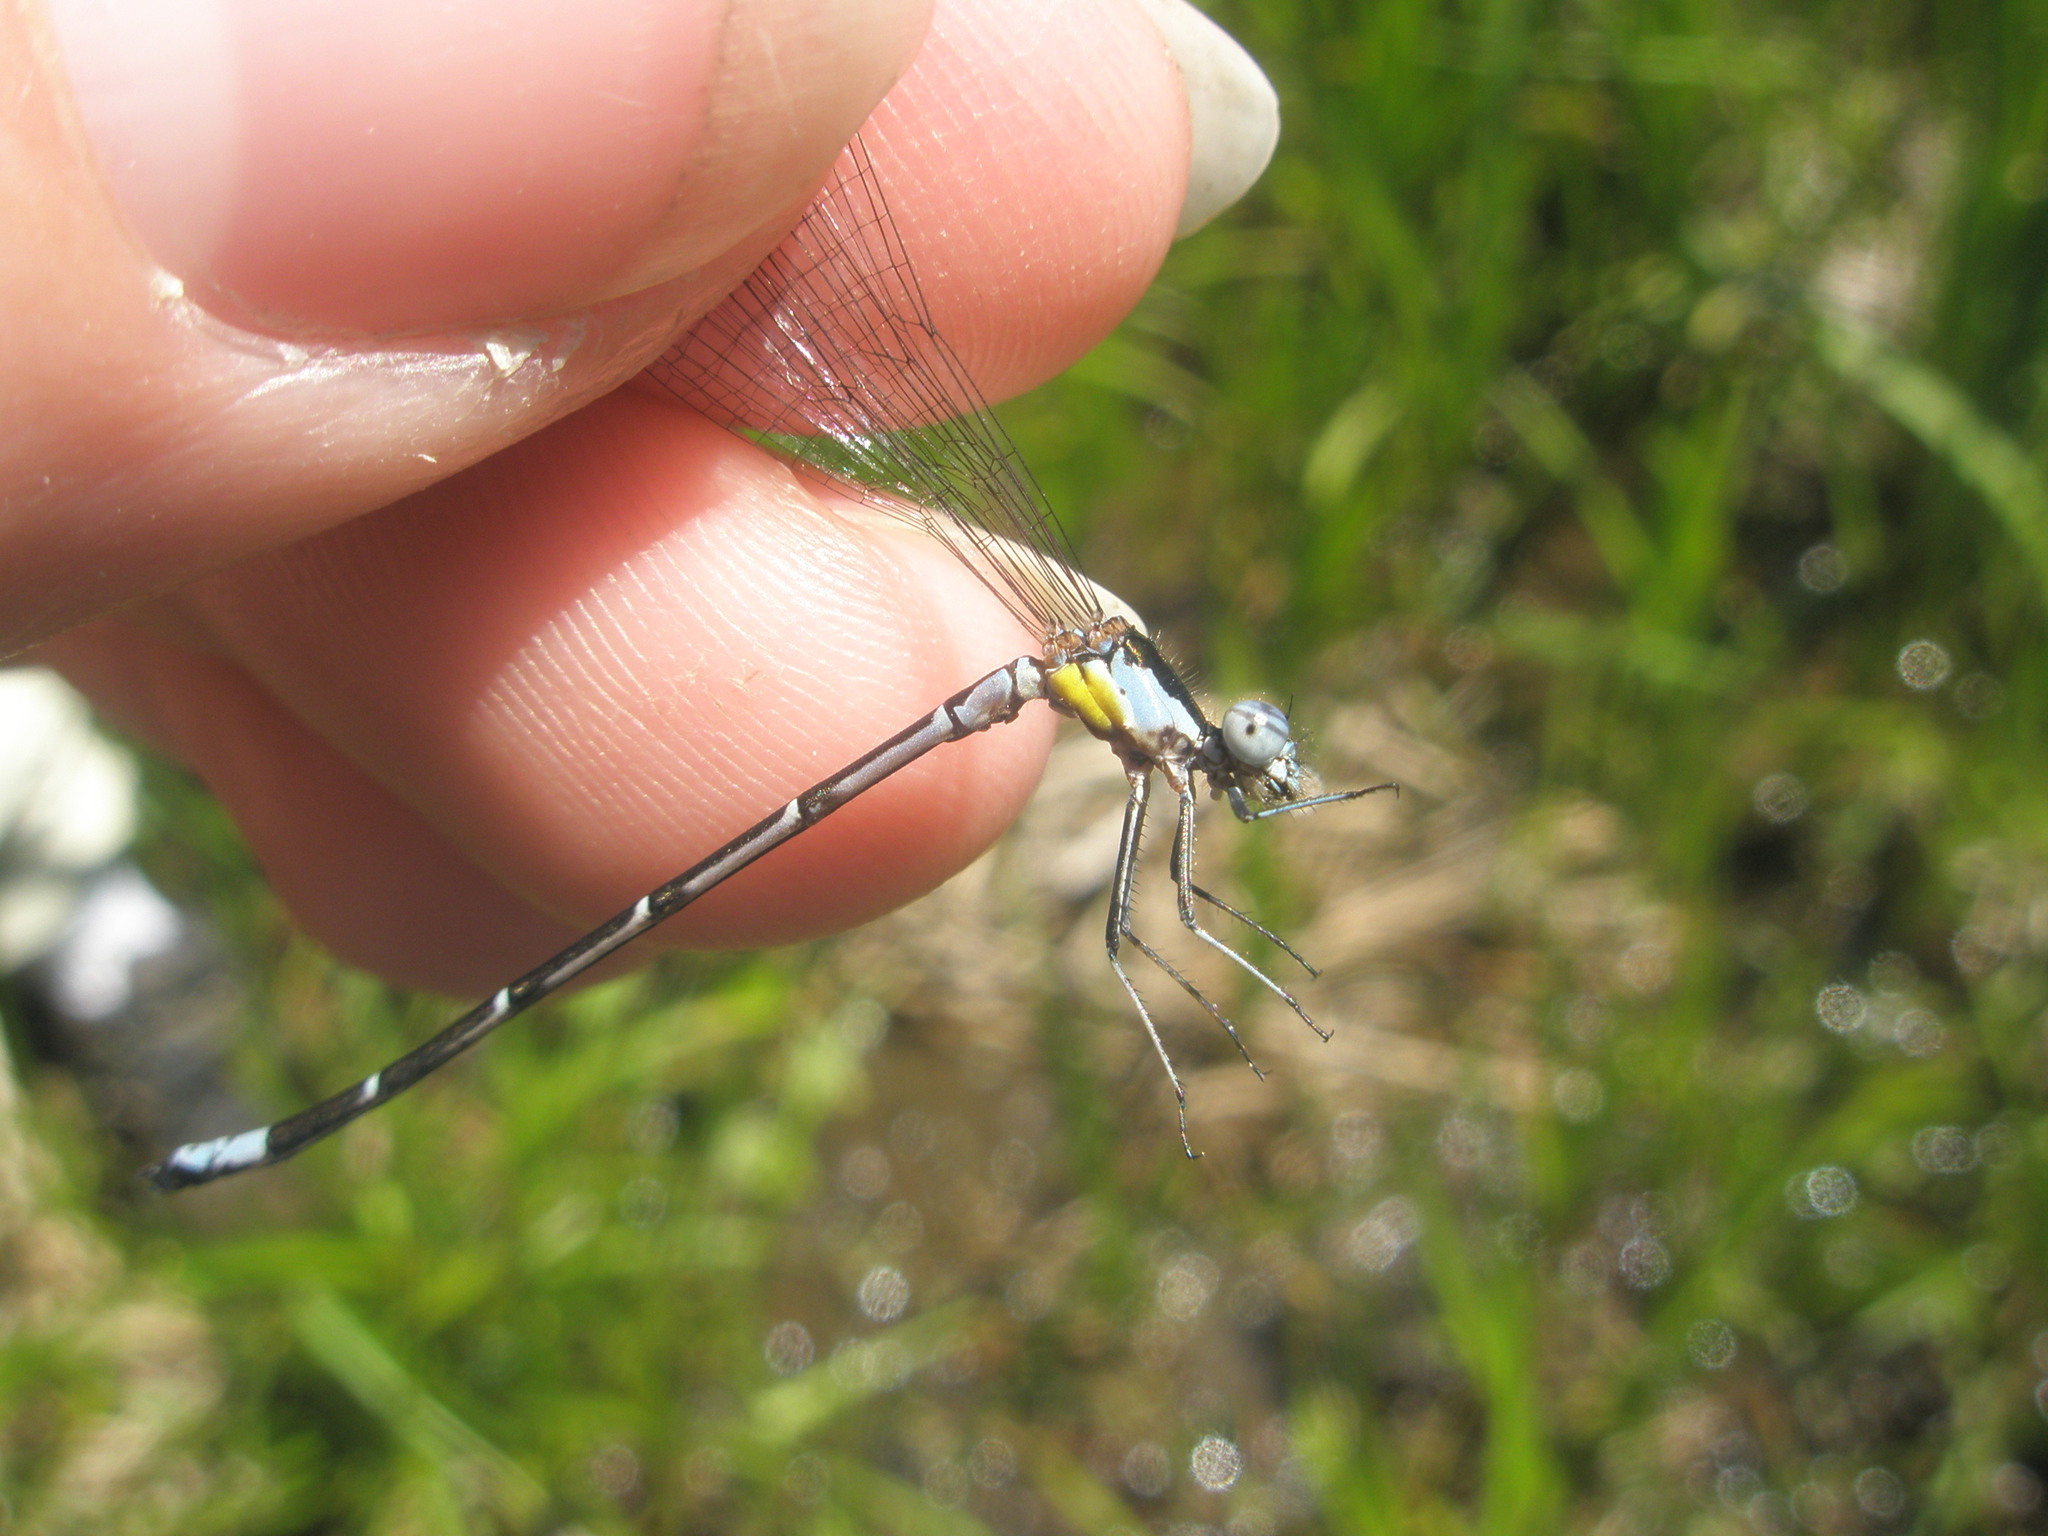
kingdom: Animalia
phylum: Arthropoda
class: Insecta
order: Odonata
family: Coenagrionidae
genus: Chromagrion
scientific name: Chromagrion conditum
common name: Aurora damsel
